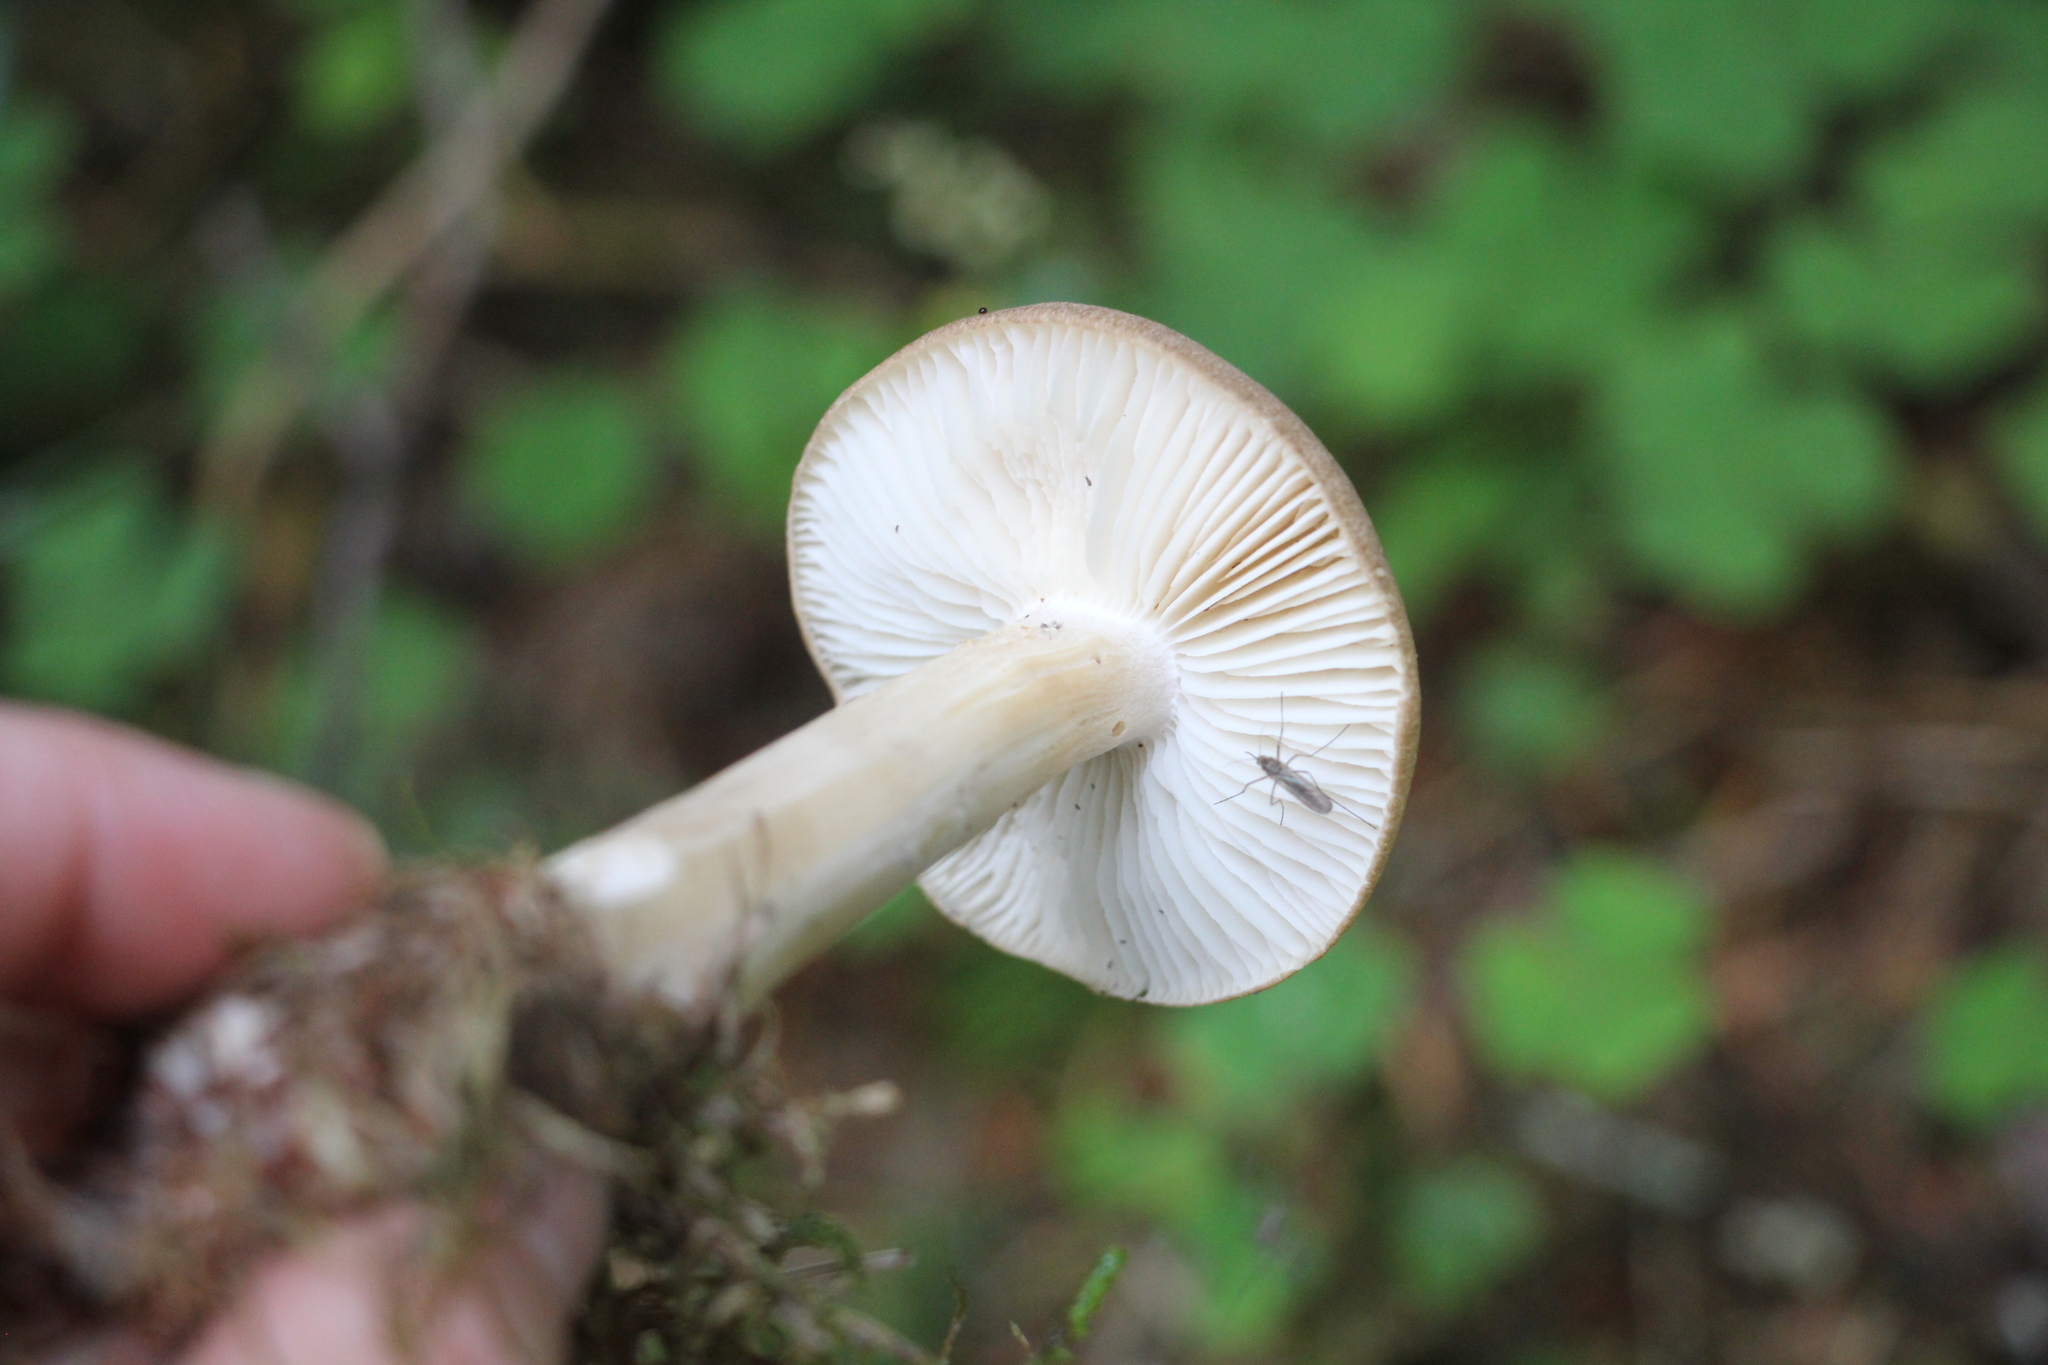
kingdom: Fungi
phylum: Basidiomycota
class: Agaricomycetes
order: Agaricales
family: Tricholomataceae
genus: Megacollybia
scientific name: Megacollybia platyphylla
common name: Whitelaced shank
